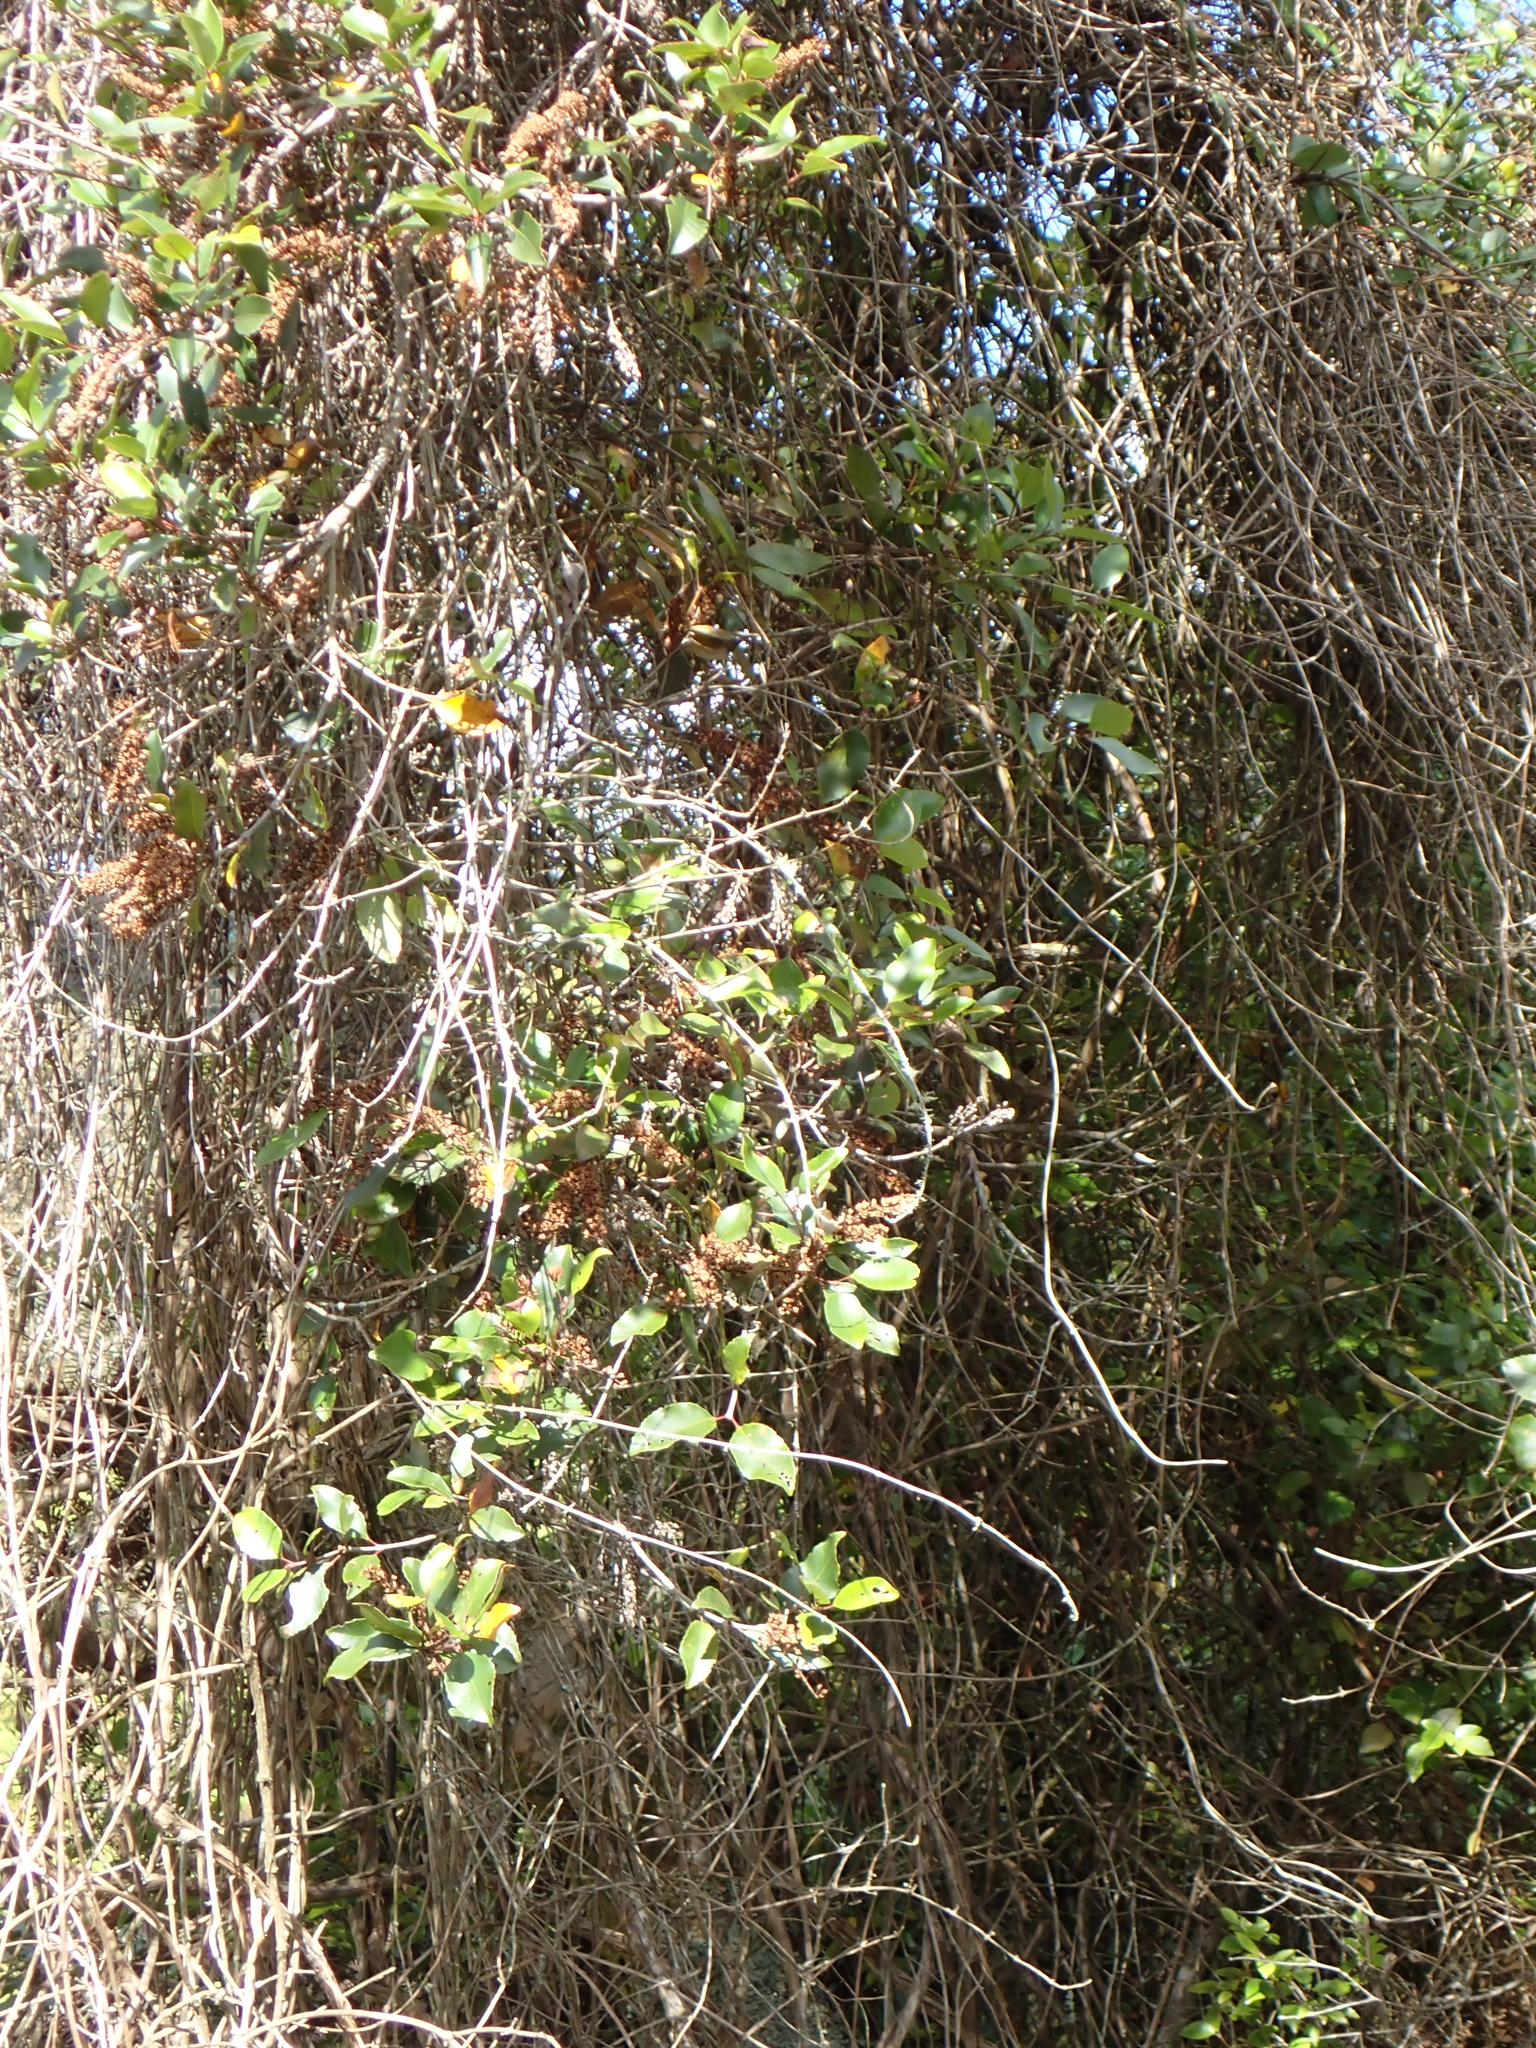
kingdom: Plantae
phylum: Tracheophyta
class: Magnoliopsida
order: Oxalidales
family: Cunoniaceae
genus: Pterophylla
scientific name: Pterophylla racemosa
